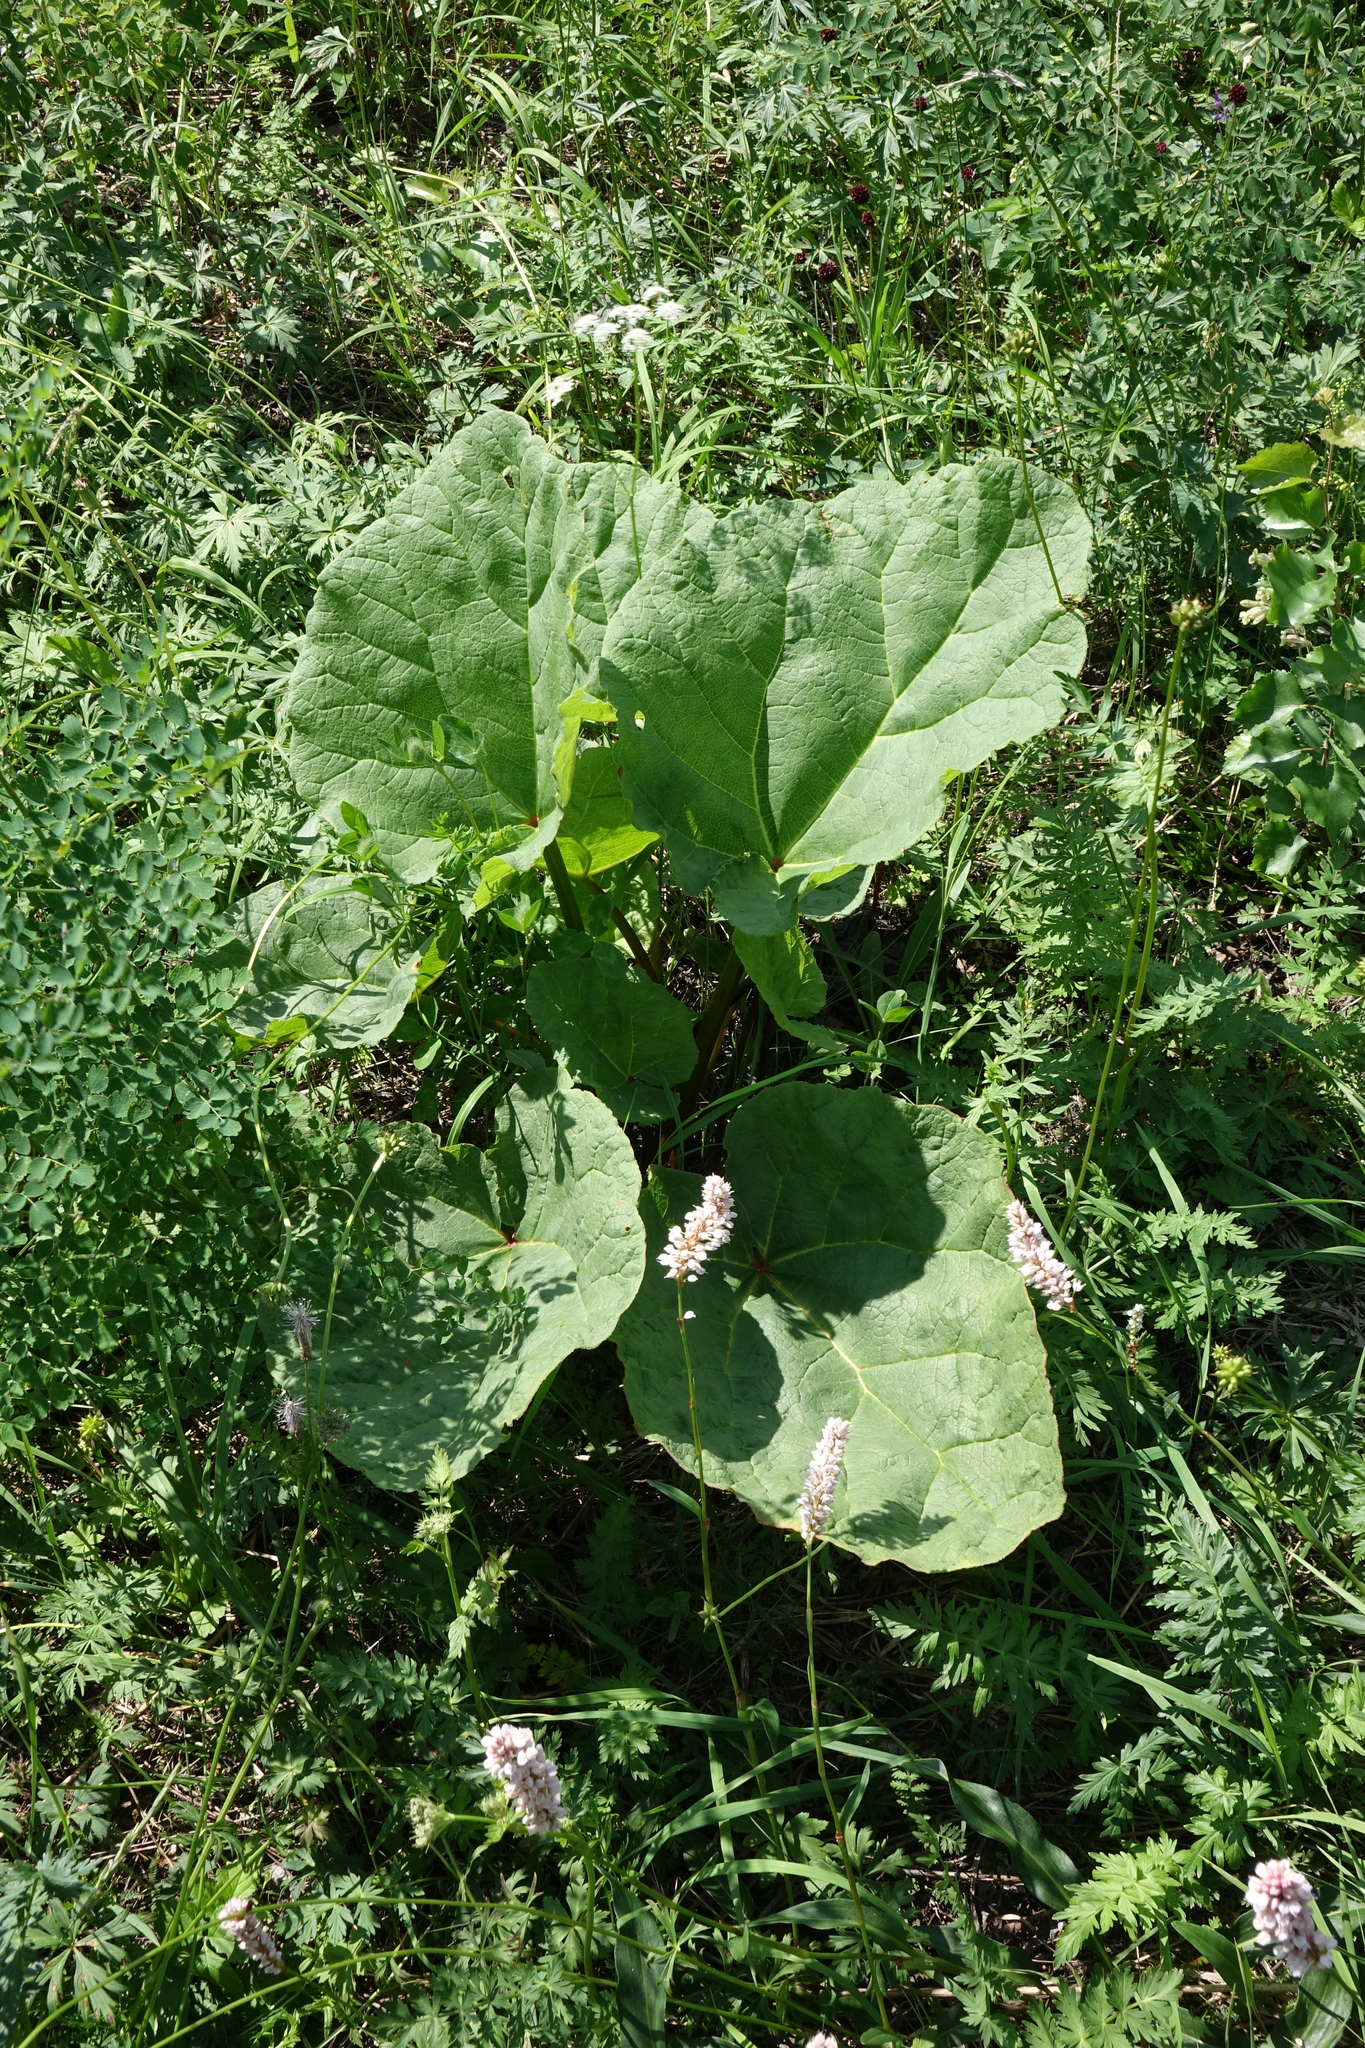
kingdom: Plantae
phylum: Tracheophyta
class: Magnoliopsida
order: Caryophyllales
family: Polygonaceae
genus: Rheum
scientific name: Rheum compactum
